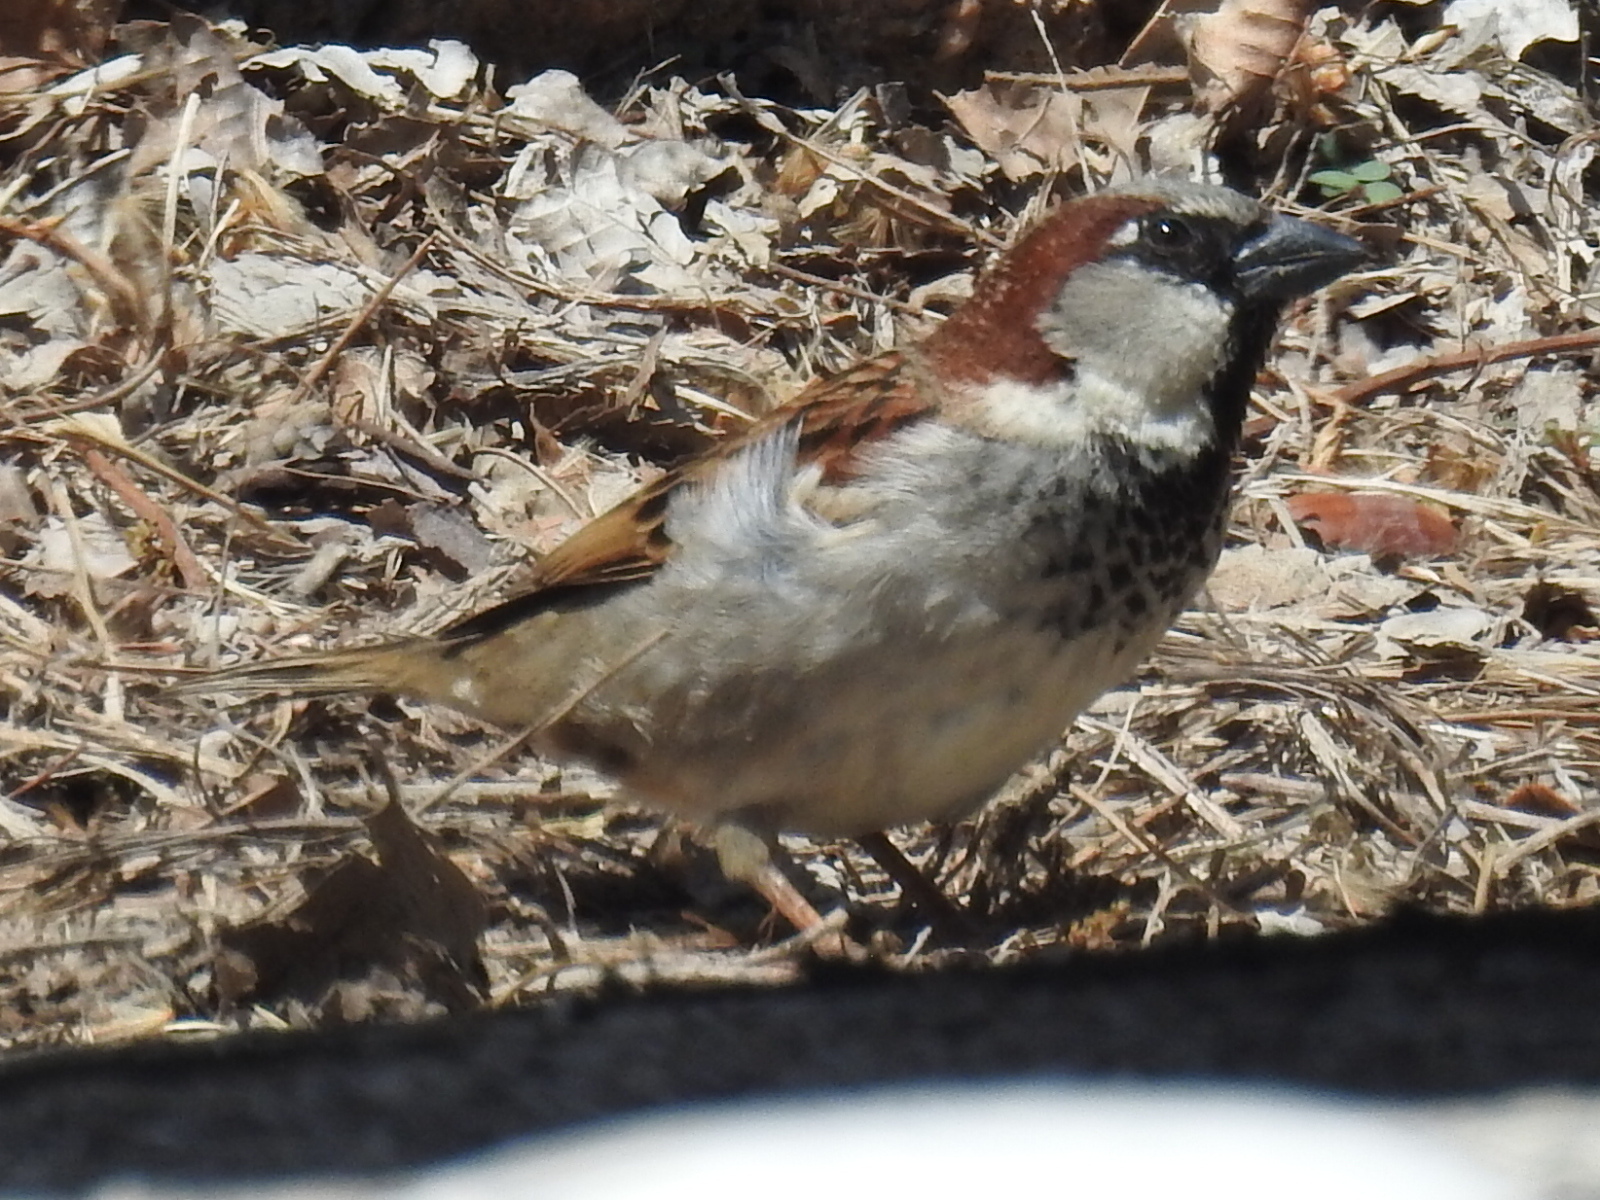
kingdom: Animalia
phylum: Chordata
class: Aves
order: Passeriformes
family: Passeridae
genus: Passer
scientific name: Passer domesticus
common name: House sparrow
